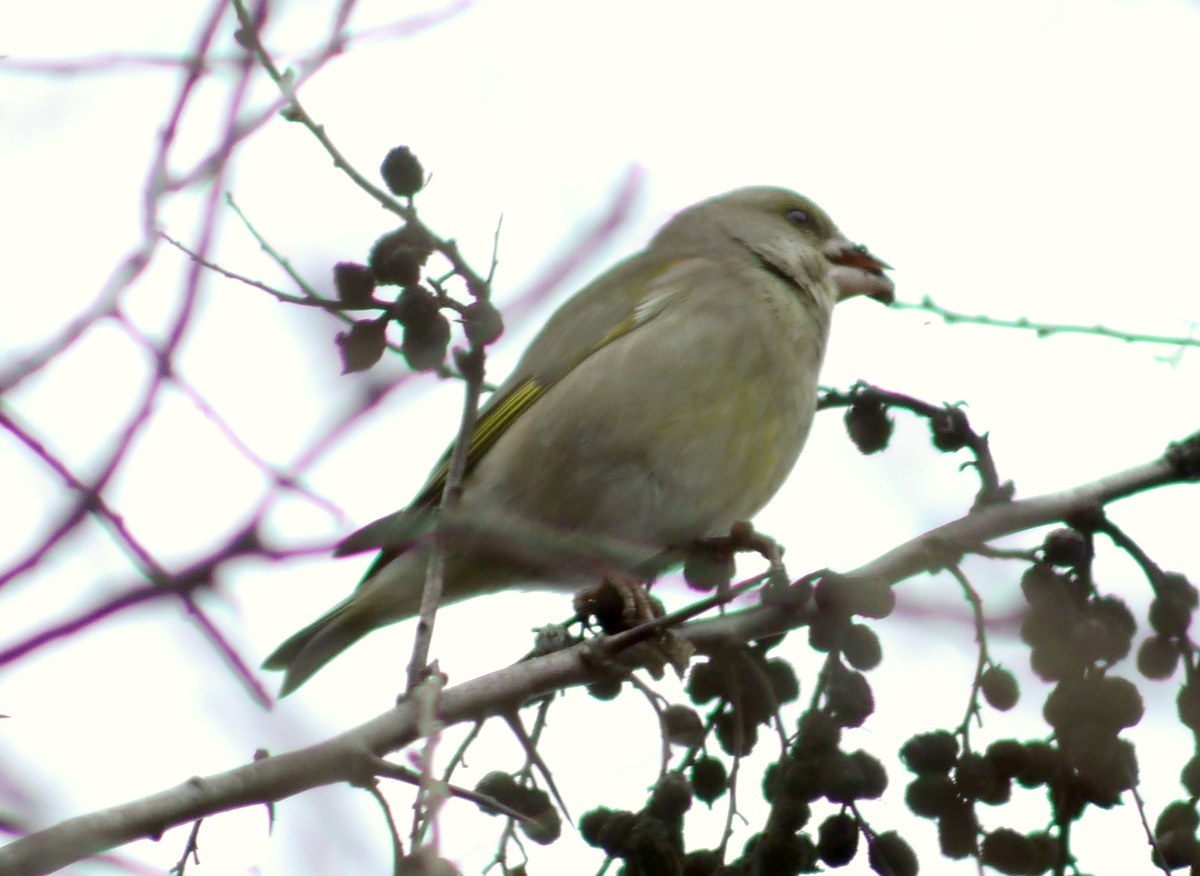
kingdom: Plantae
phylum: Tracheophyta
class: Liliopsida
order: Poales
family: Poaceae
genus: Chloris
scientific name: Chloris chloris
